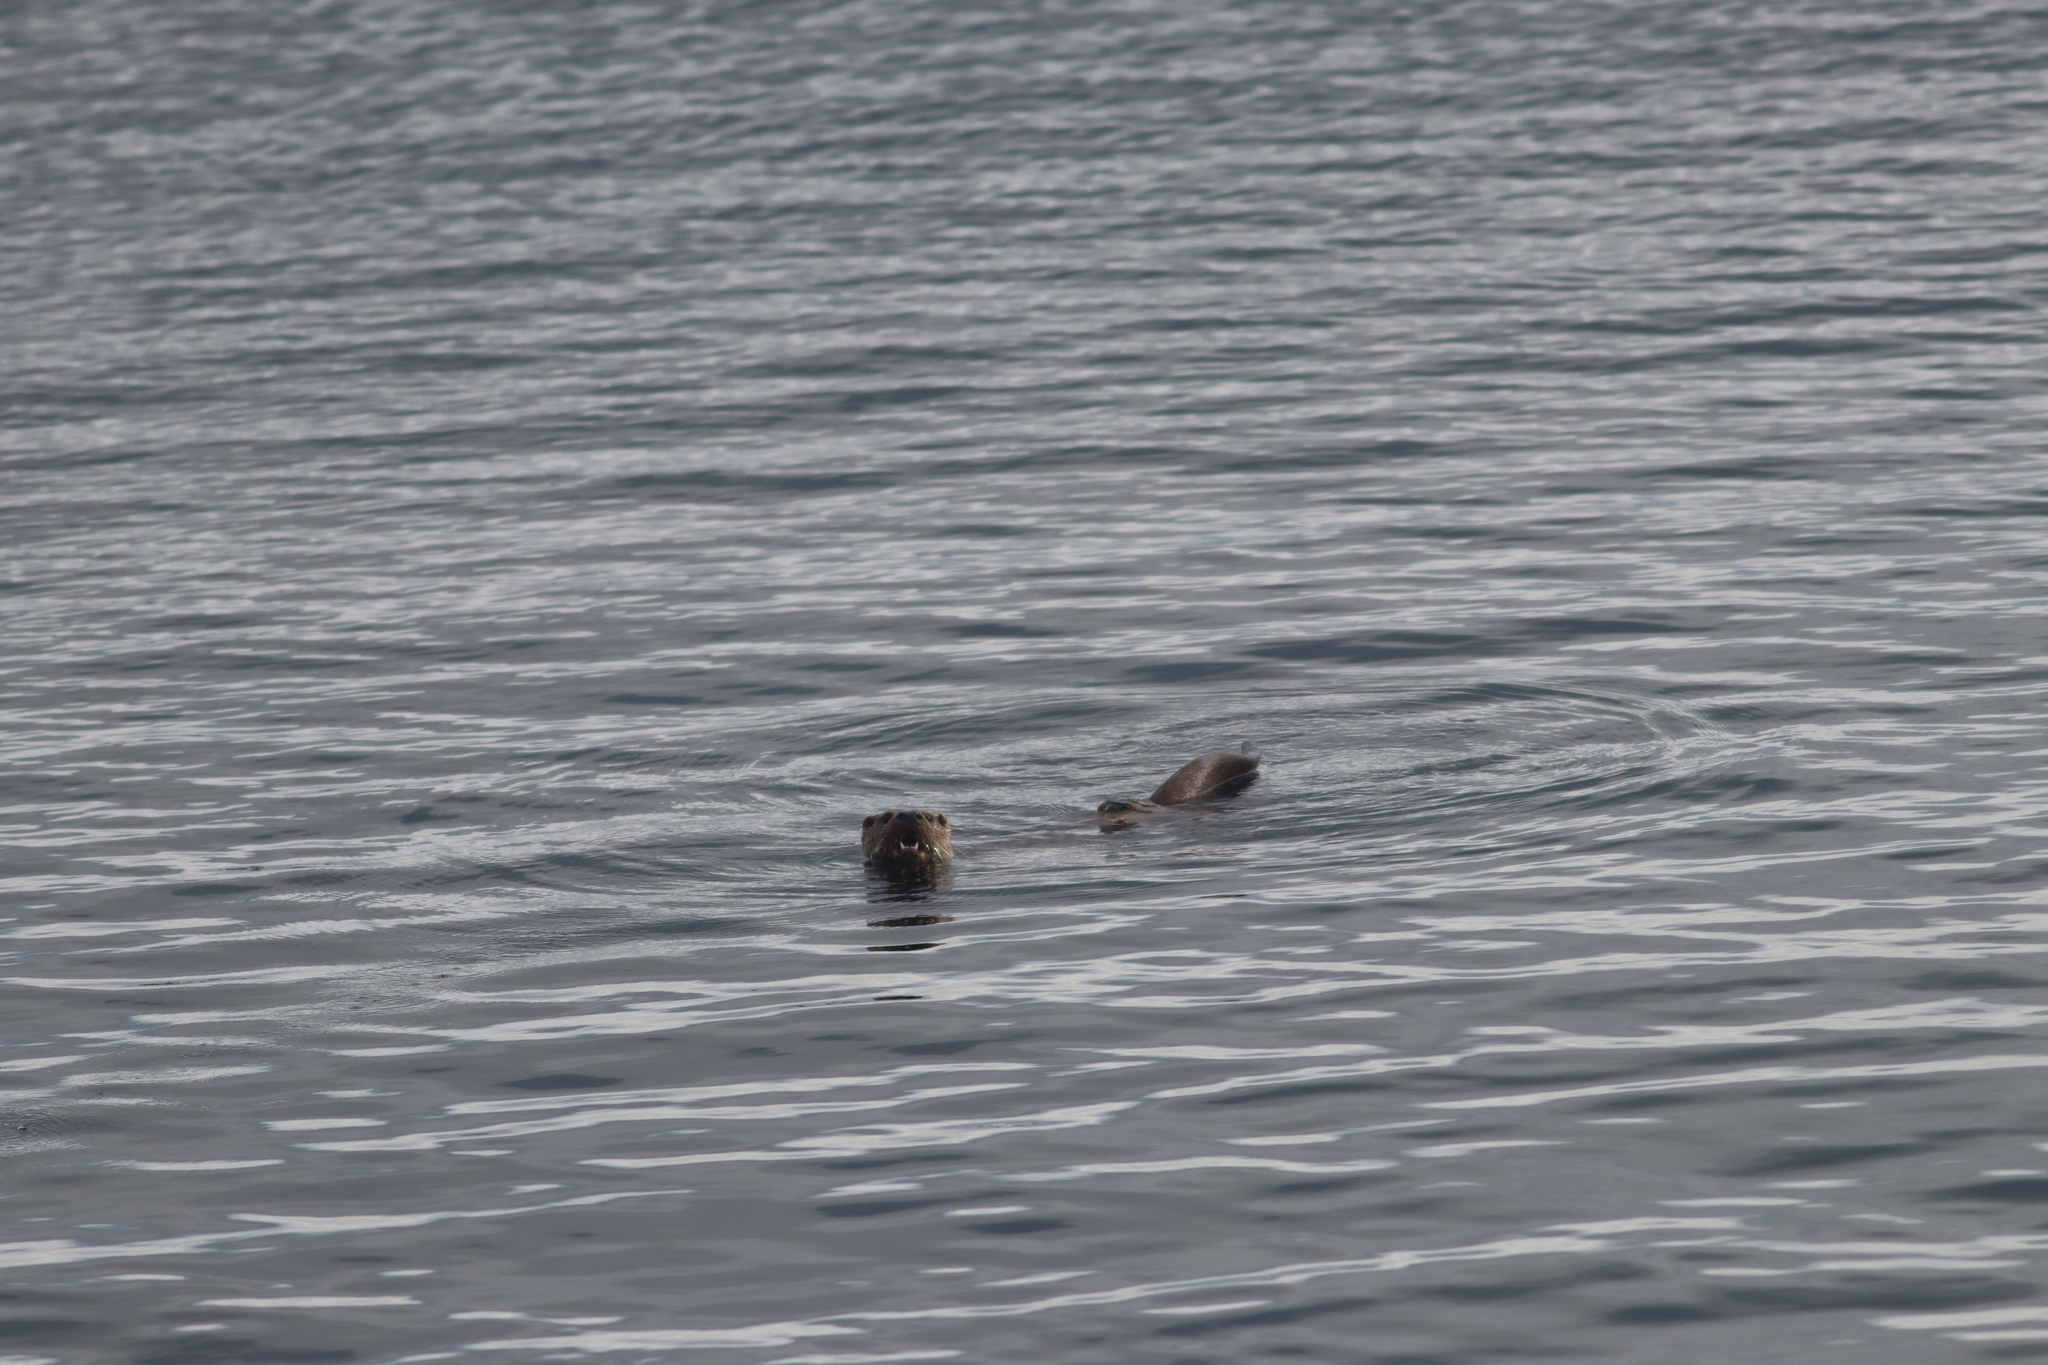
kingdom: Animalia
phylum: Chordata
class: Mammalia
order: Carnivora
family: Mustelidae
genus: Lutra
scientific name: Lutra lutra
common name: European otter
